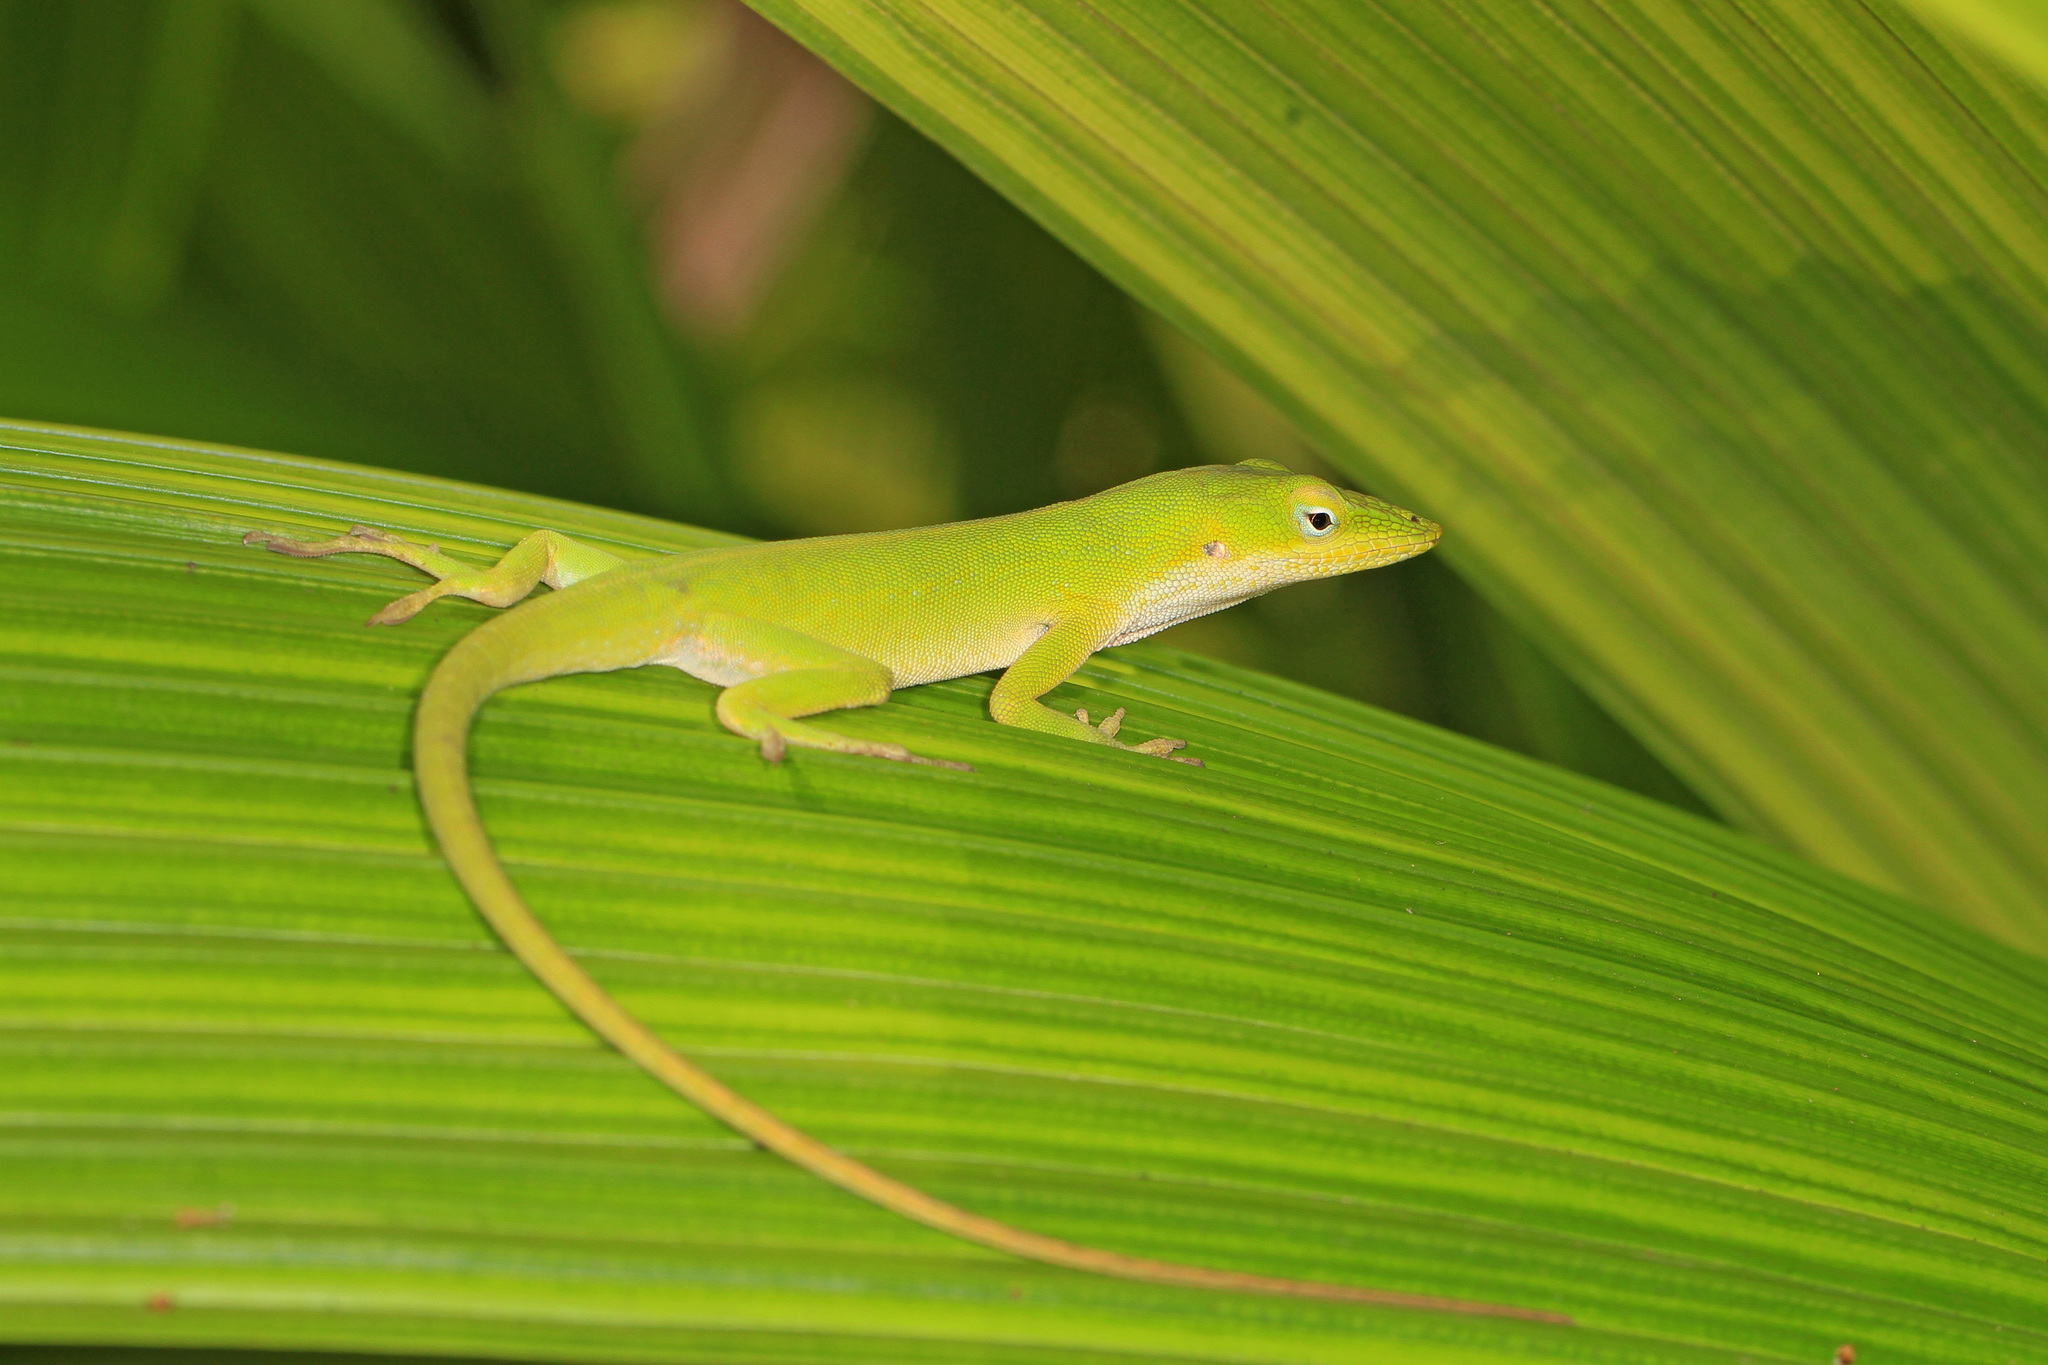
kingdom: Animalia
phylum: Chordata
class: Squamata
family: Dactyloidae
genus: Anolis
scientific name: Anolis carolinensis
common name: Green anole
